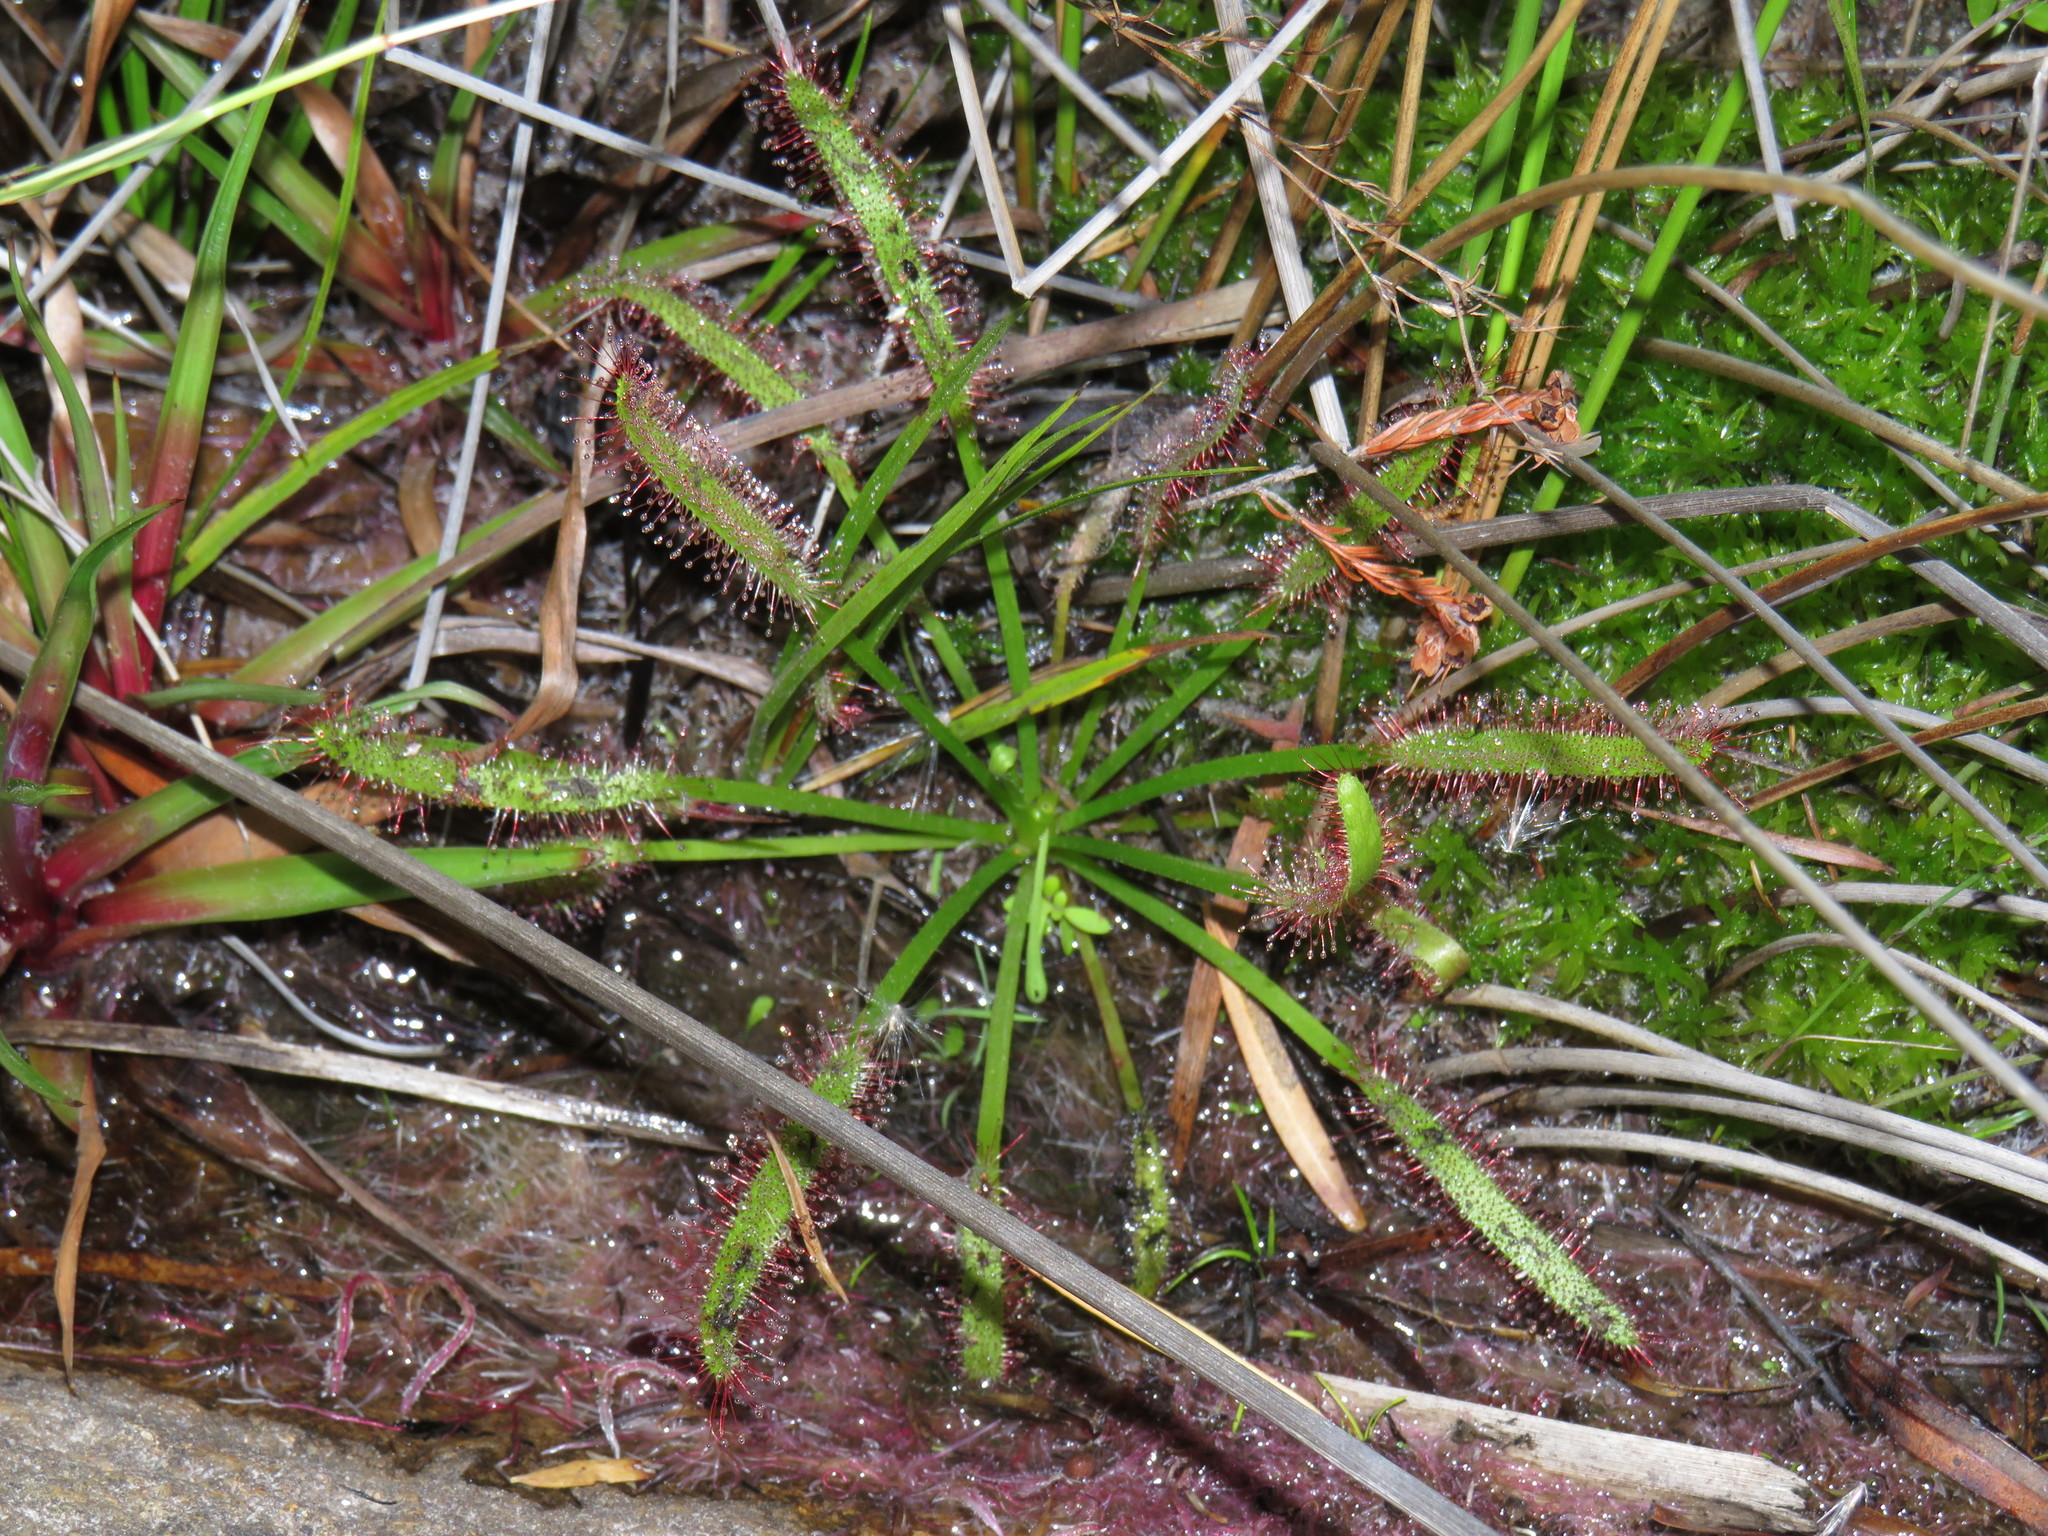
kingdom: Plantae
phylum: Tracheophyta
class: Magnoliopsida
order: Caryophyllales
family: Droseraceae
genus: Drosera
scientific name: Drosera capensis
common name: Cape sundew
